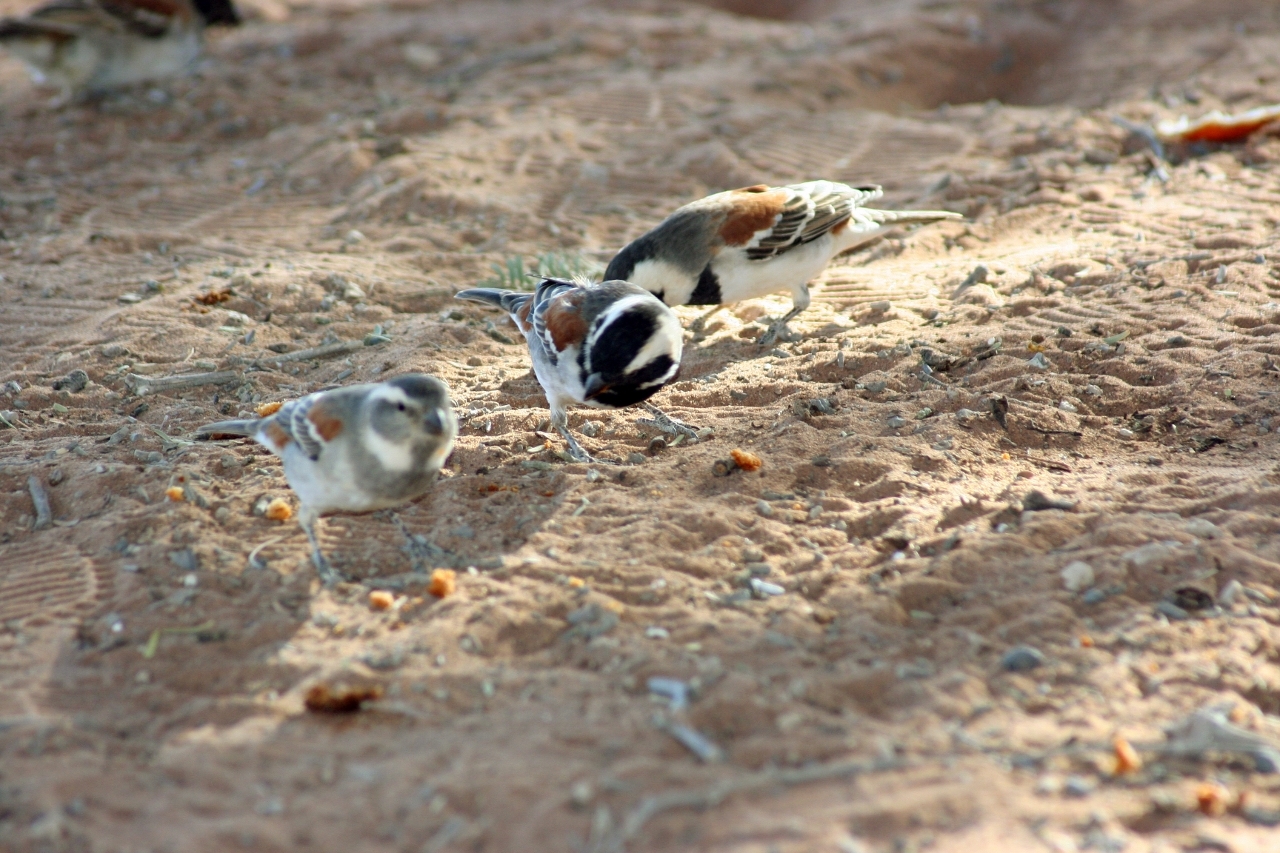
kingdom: Animalia
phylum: Chordata
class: Aves
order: Passeriformes
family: Passeridae
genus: Passer
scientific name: Passer melanurus
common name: Cape sparrow
